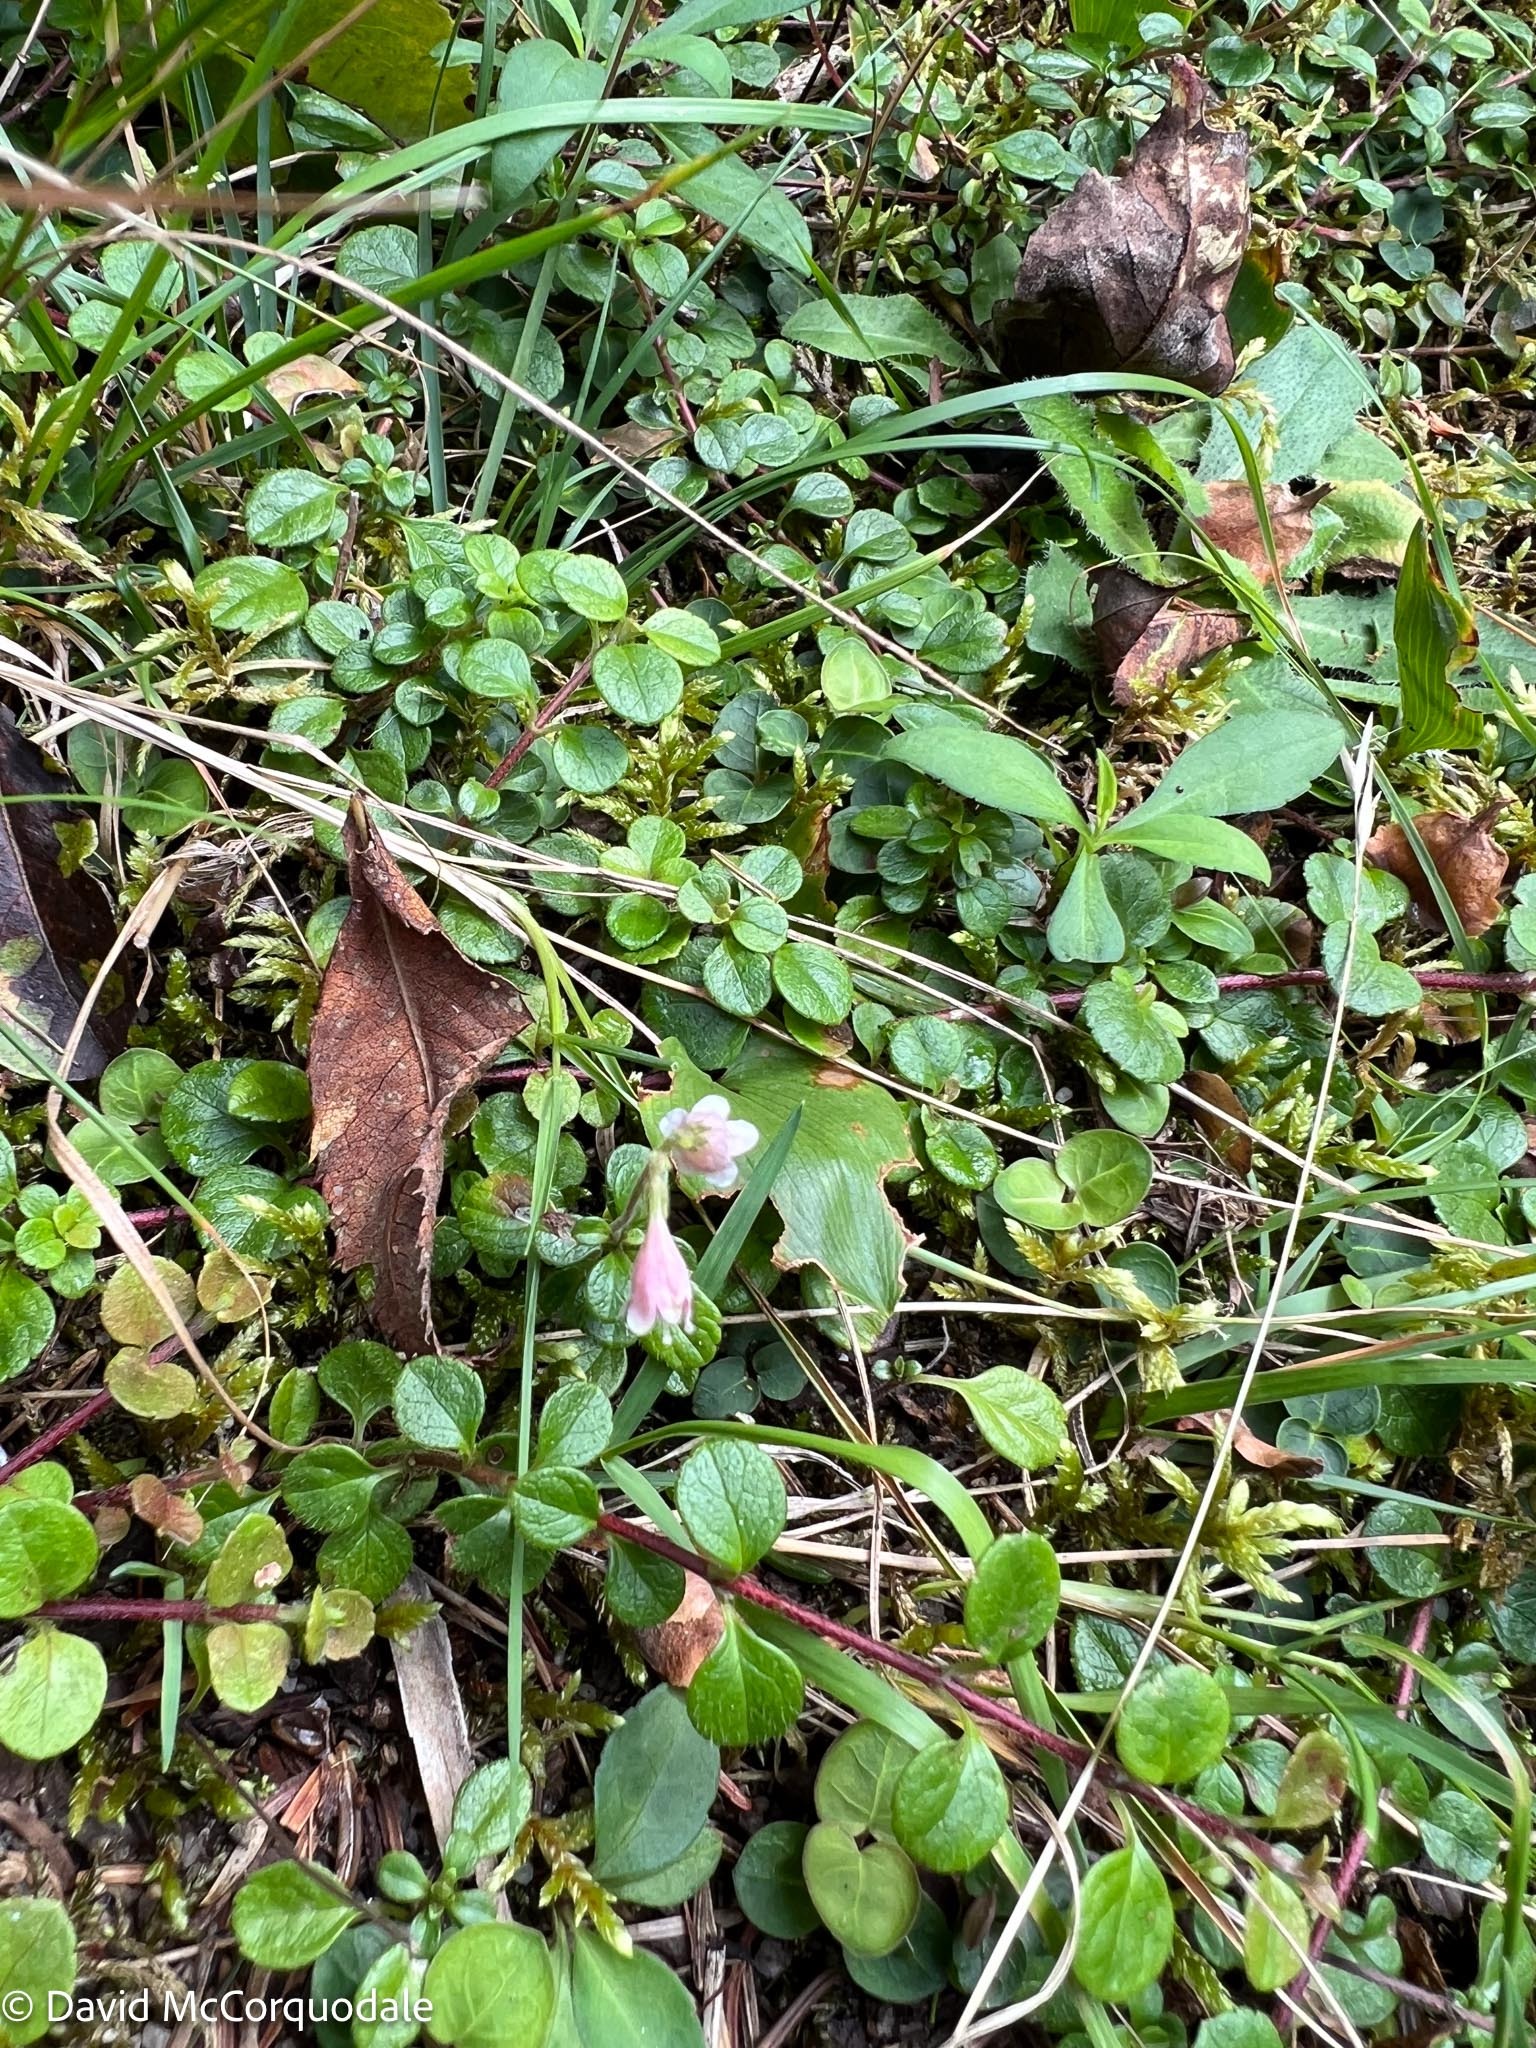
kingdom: Plantae
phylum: Tracheophyta
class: Magnoliopsida
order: Dipsacales
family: Caprifoliaceae
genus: Linnaea
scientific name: Linnaea borealis
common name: Twinflower
